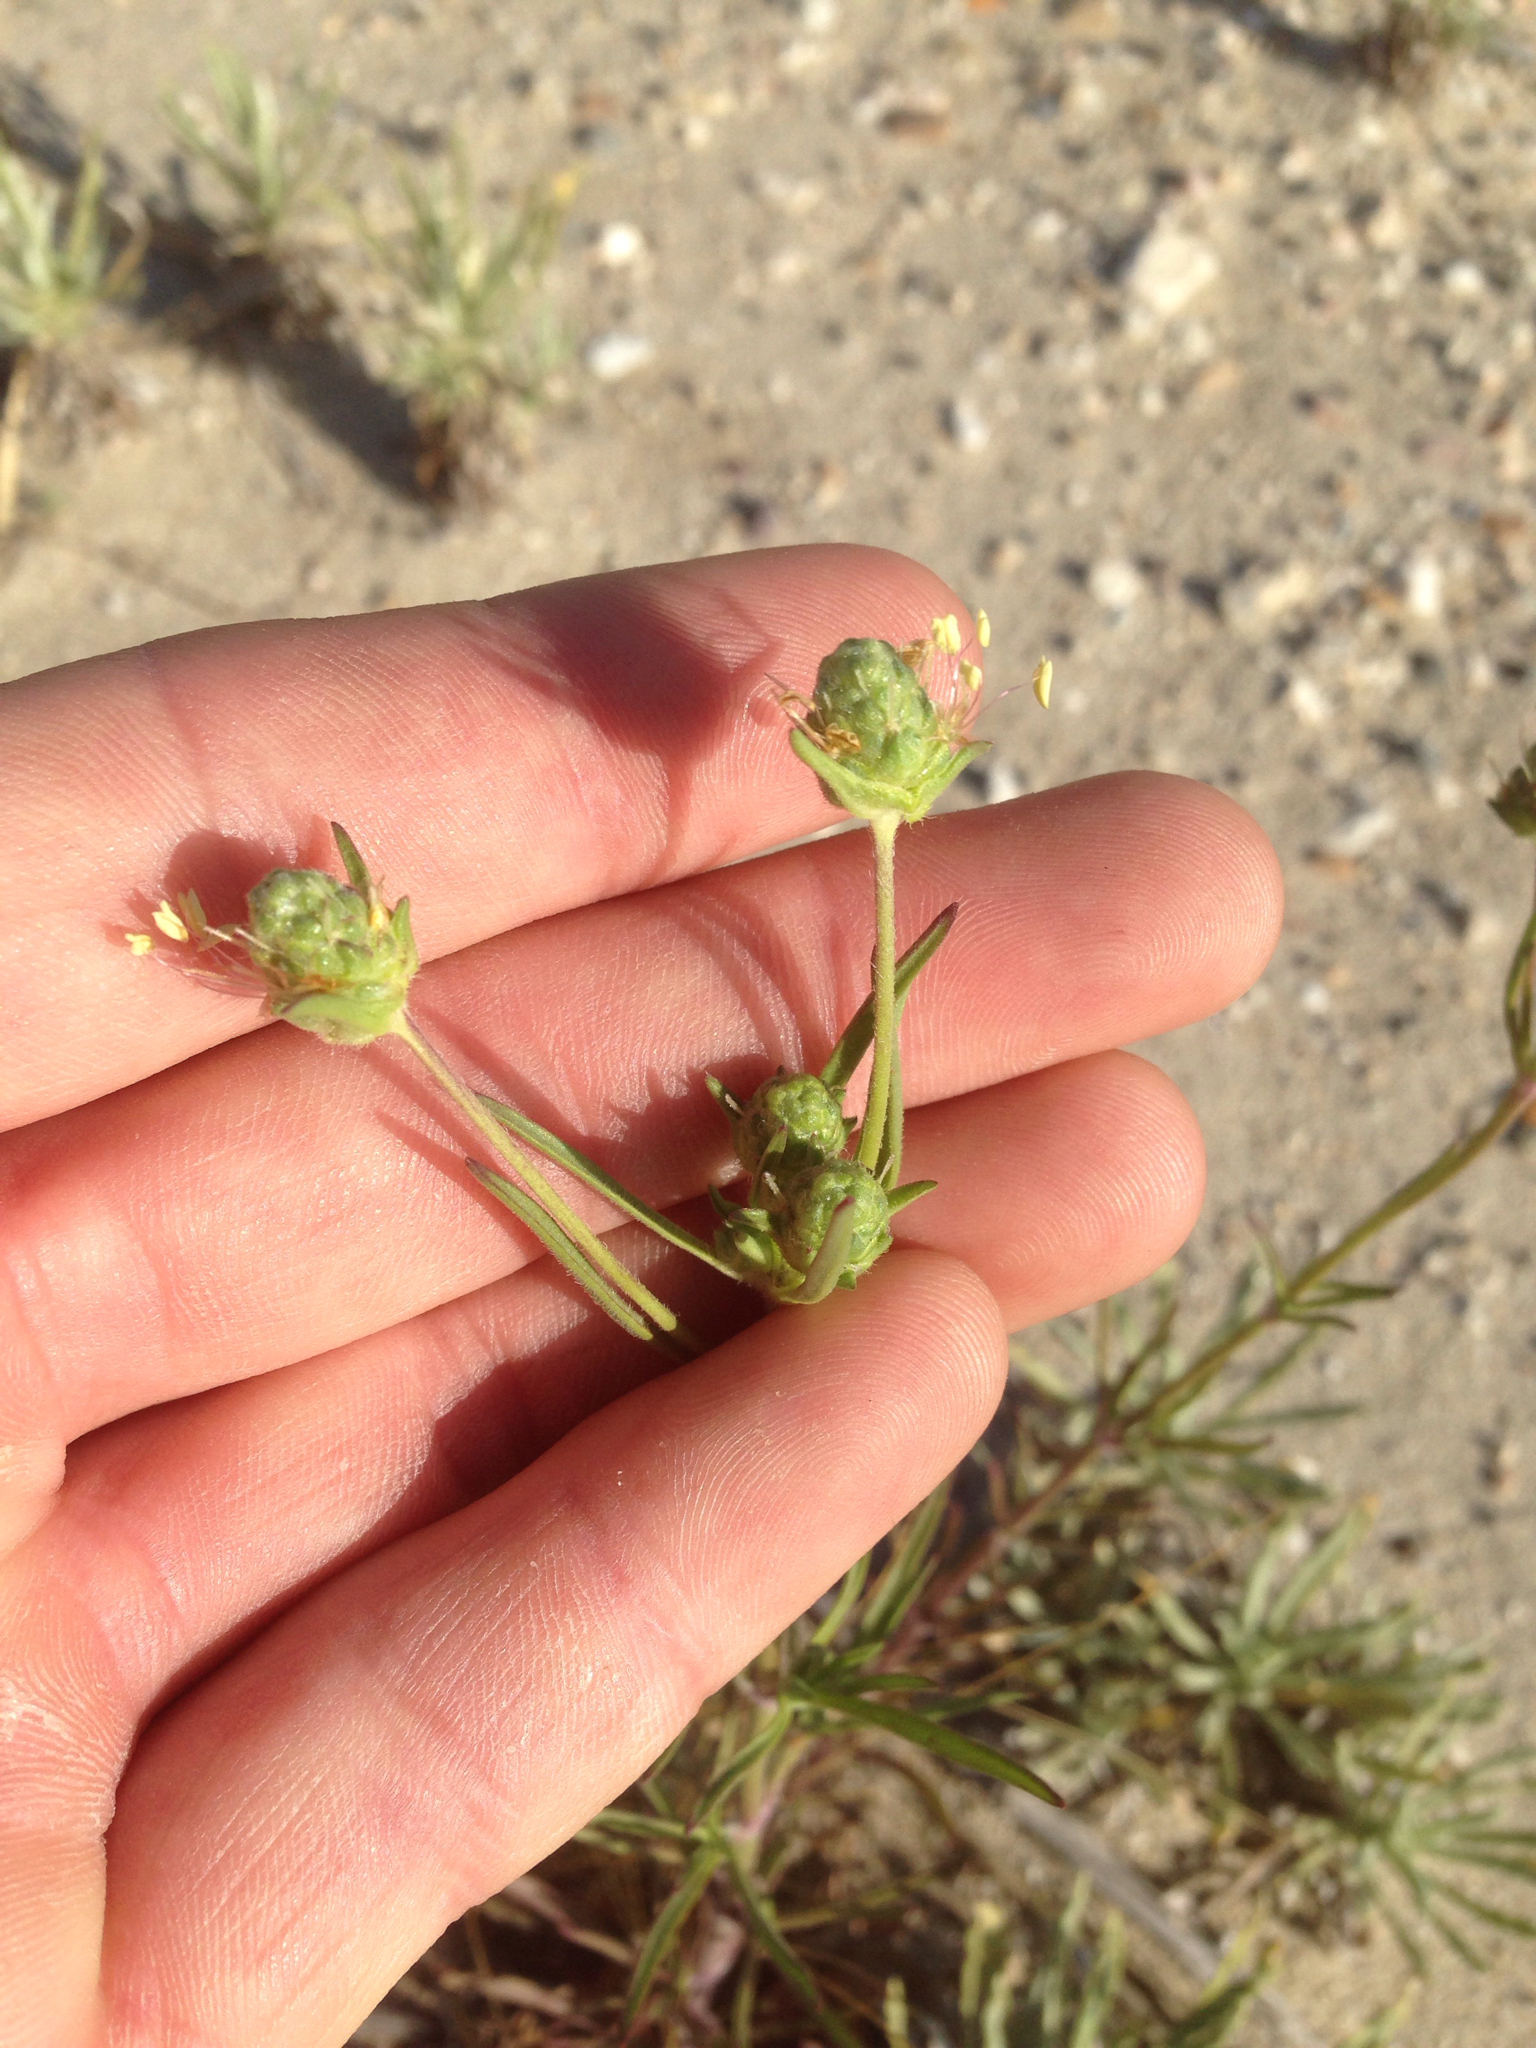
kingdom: Plantae
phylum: Tracheophyta
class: Magnoliopsida
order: Lamiales
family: Plantaginaceae
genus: Plantago
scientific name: Plantago arenaria
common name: Branched plantain
